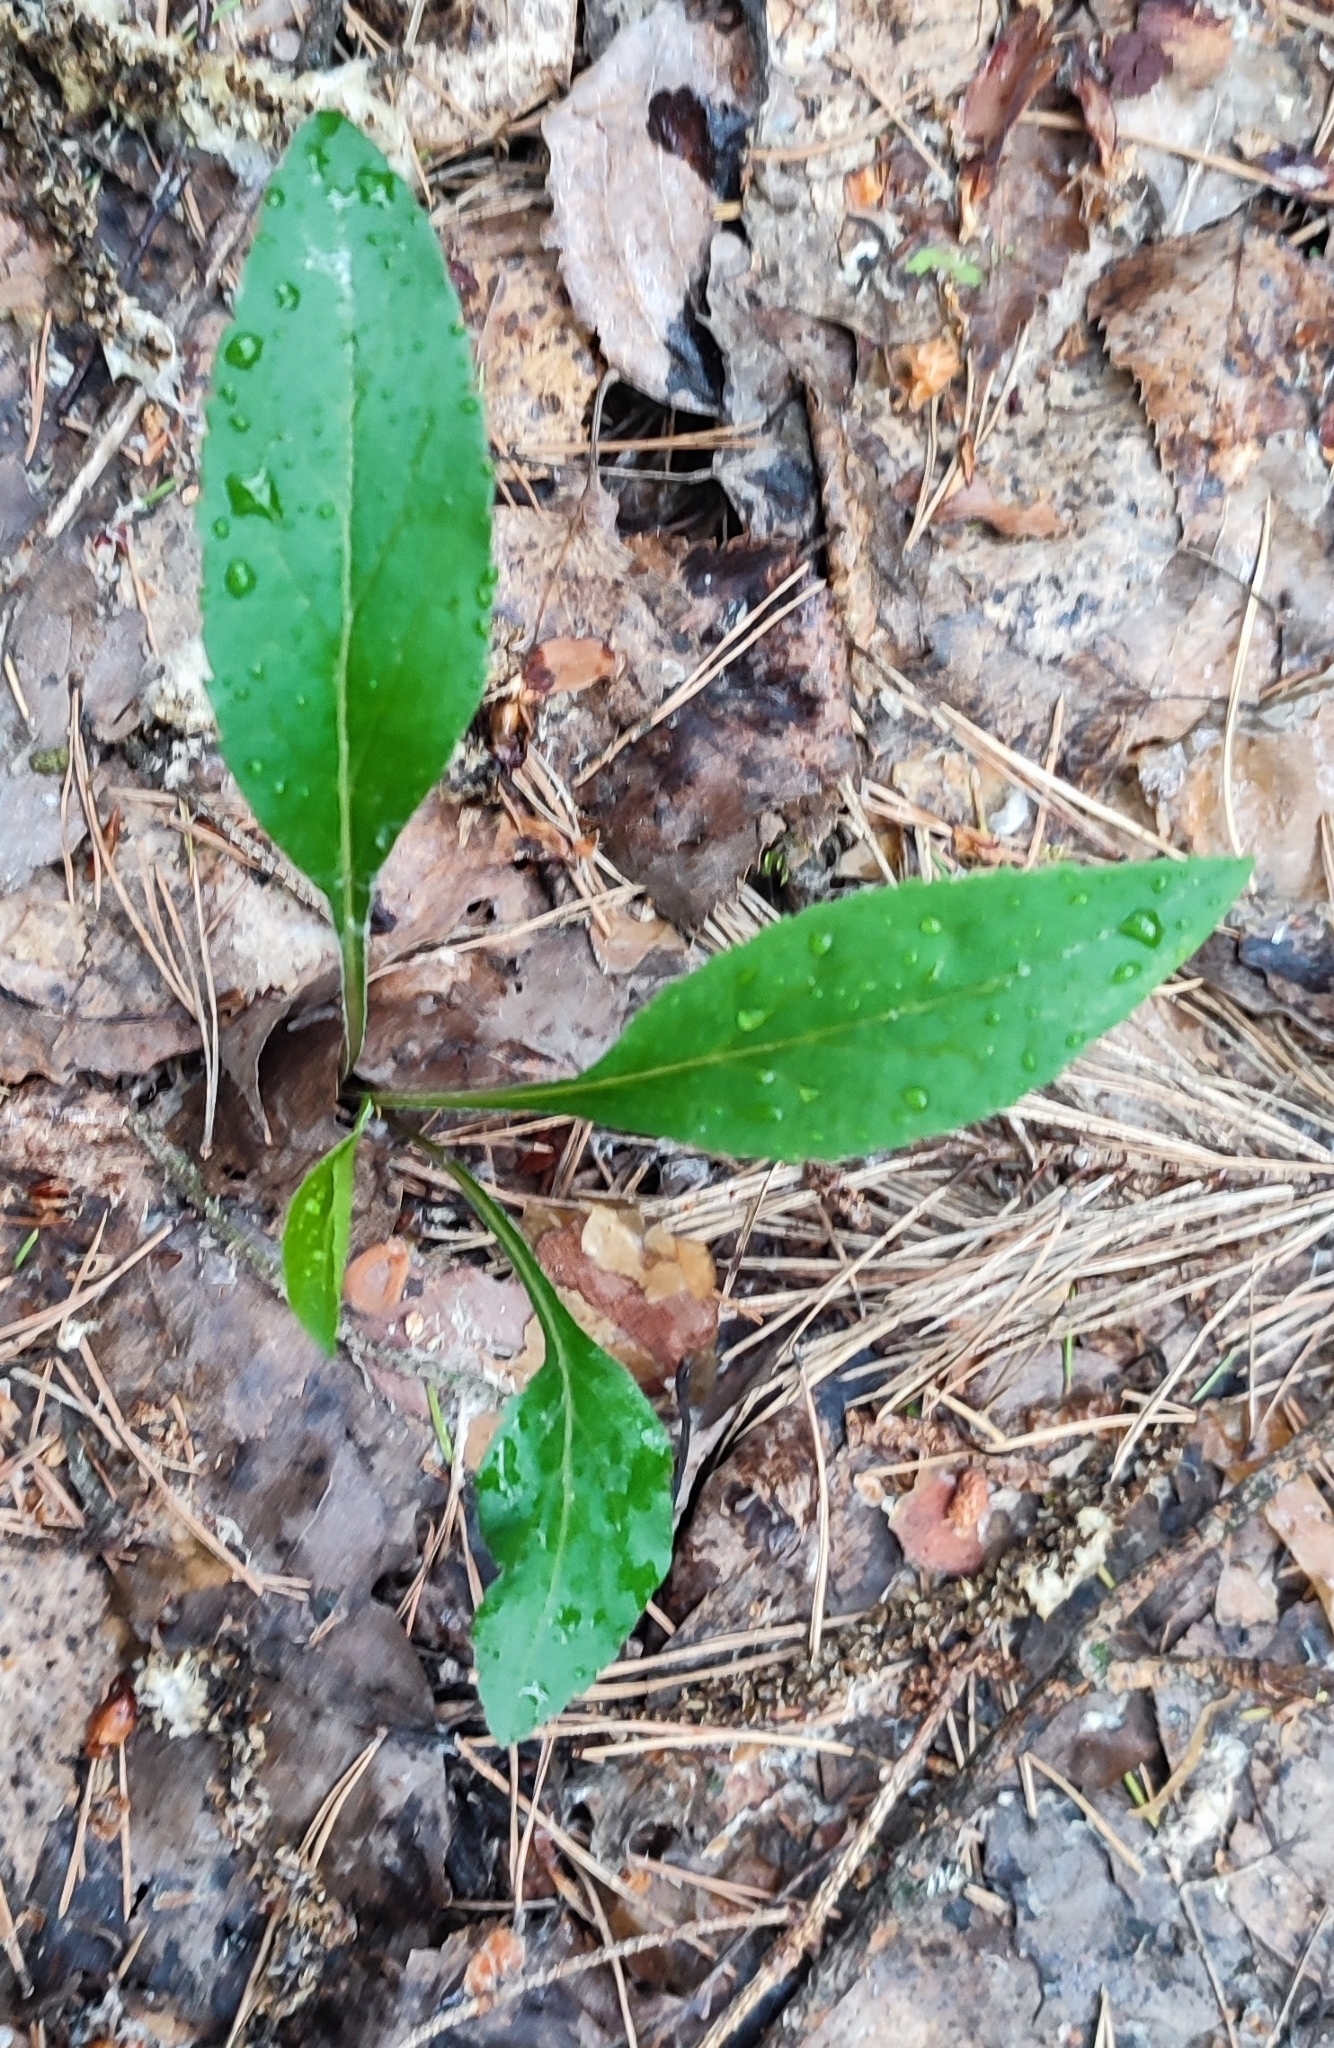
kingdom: Plantae
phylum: Tracheophyta
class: Magnoliopsida
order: Asterales
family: Asteraceae
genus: Solidago
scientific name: Solidago virgaurea
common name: Goldenrod
